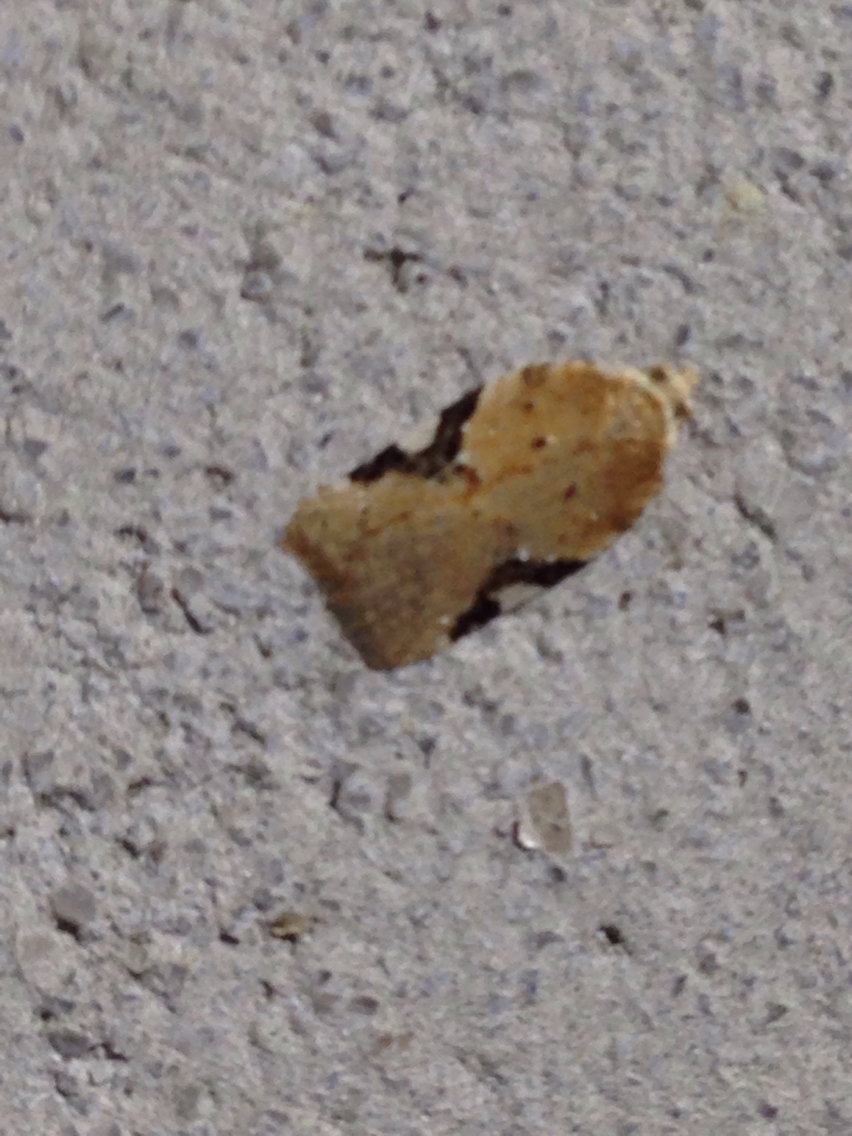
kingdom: Animalia
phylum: Arthropoda
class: Insecta
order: Lepidoptera
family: Tortricidae
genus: Acleris
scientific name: Acleris cervinana
